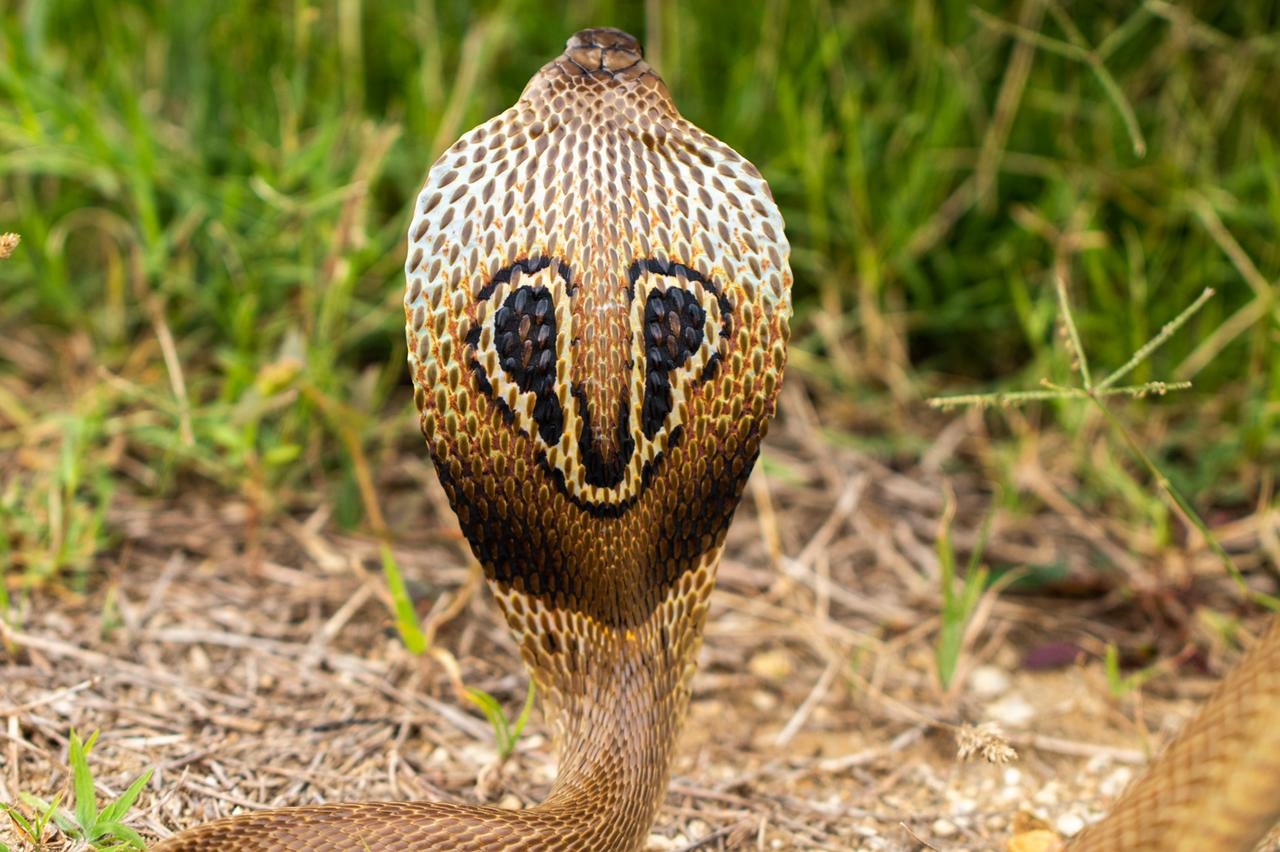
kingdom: Animalia
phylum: Chordata
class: Squamata
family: Elapidae
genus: Naja
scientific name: Naja naja
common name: Indian cobra
